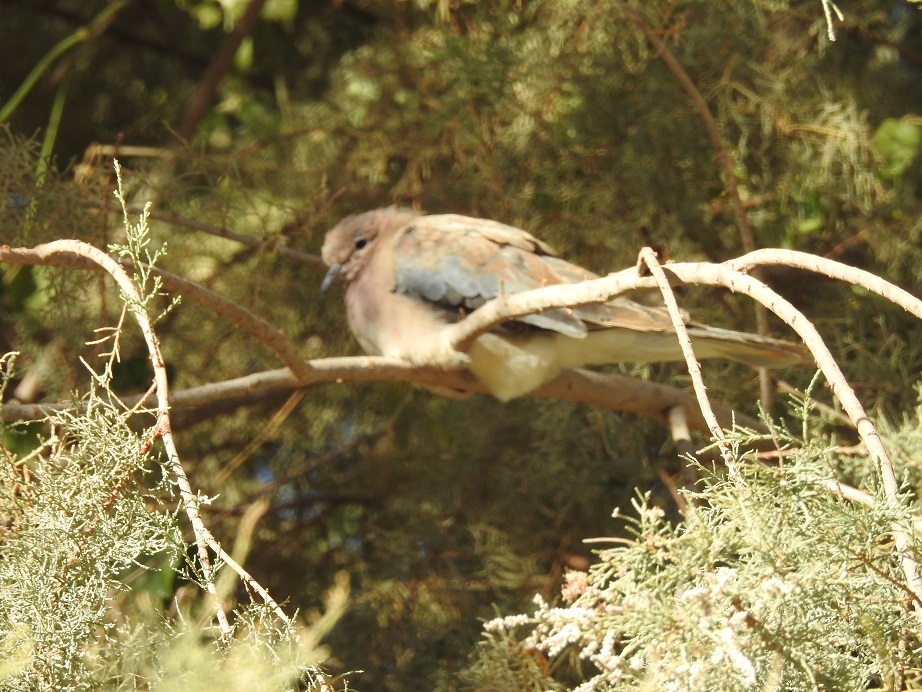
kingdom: Animalia
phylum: Chordata
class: Aves
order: Columbiformes
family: Columbidae
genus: Spilopelia
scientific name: Spilopelia senegalensis
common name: Laughing dove
